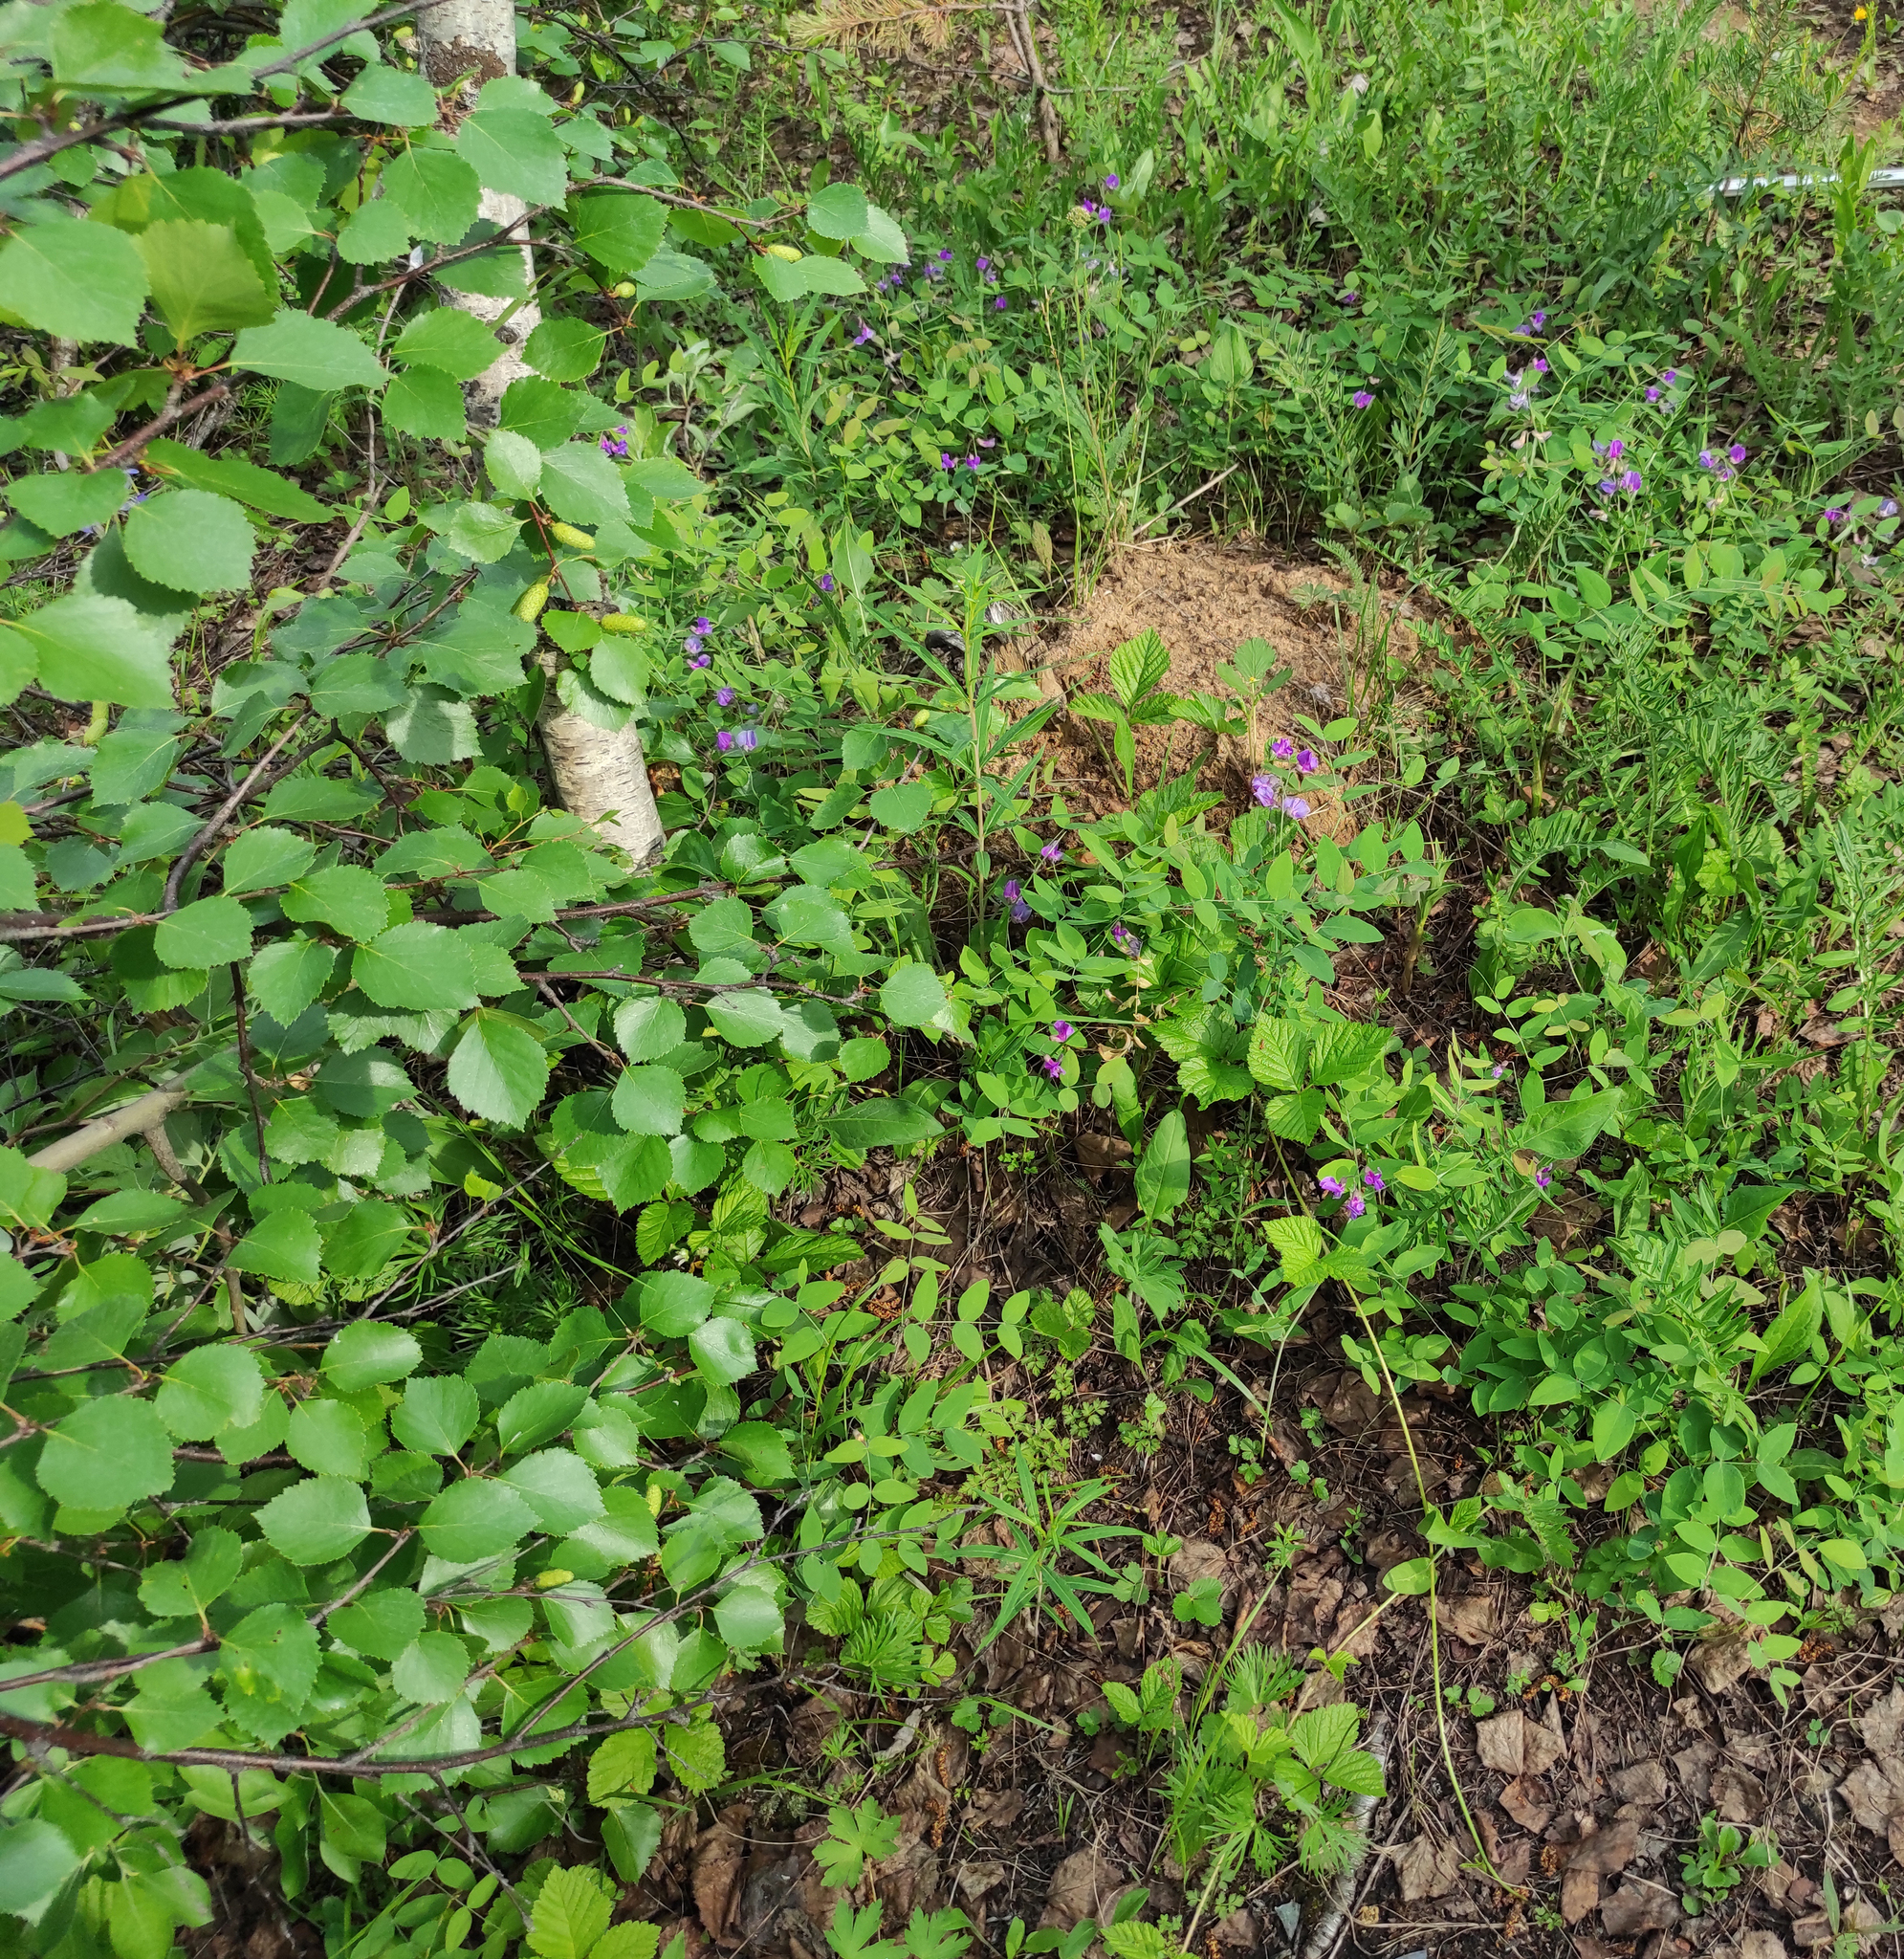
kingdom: Plantae
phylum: Tracheophyta
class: Magnoliopsida
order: Fabales
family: Fabaceae
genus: Lathyrus
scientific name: Lathyrus humilis
